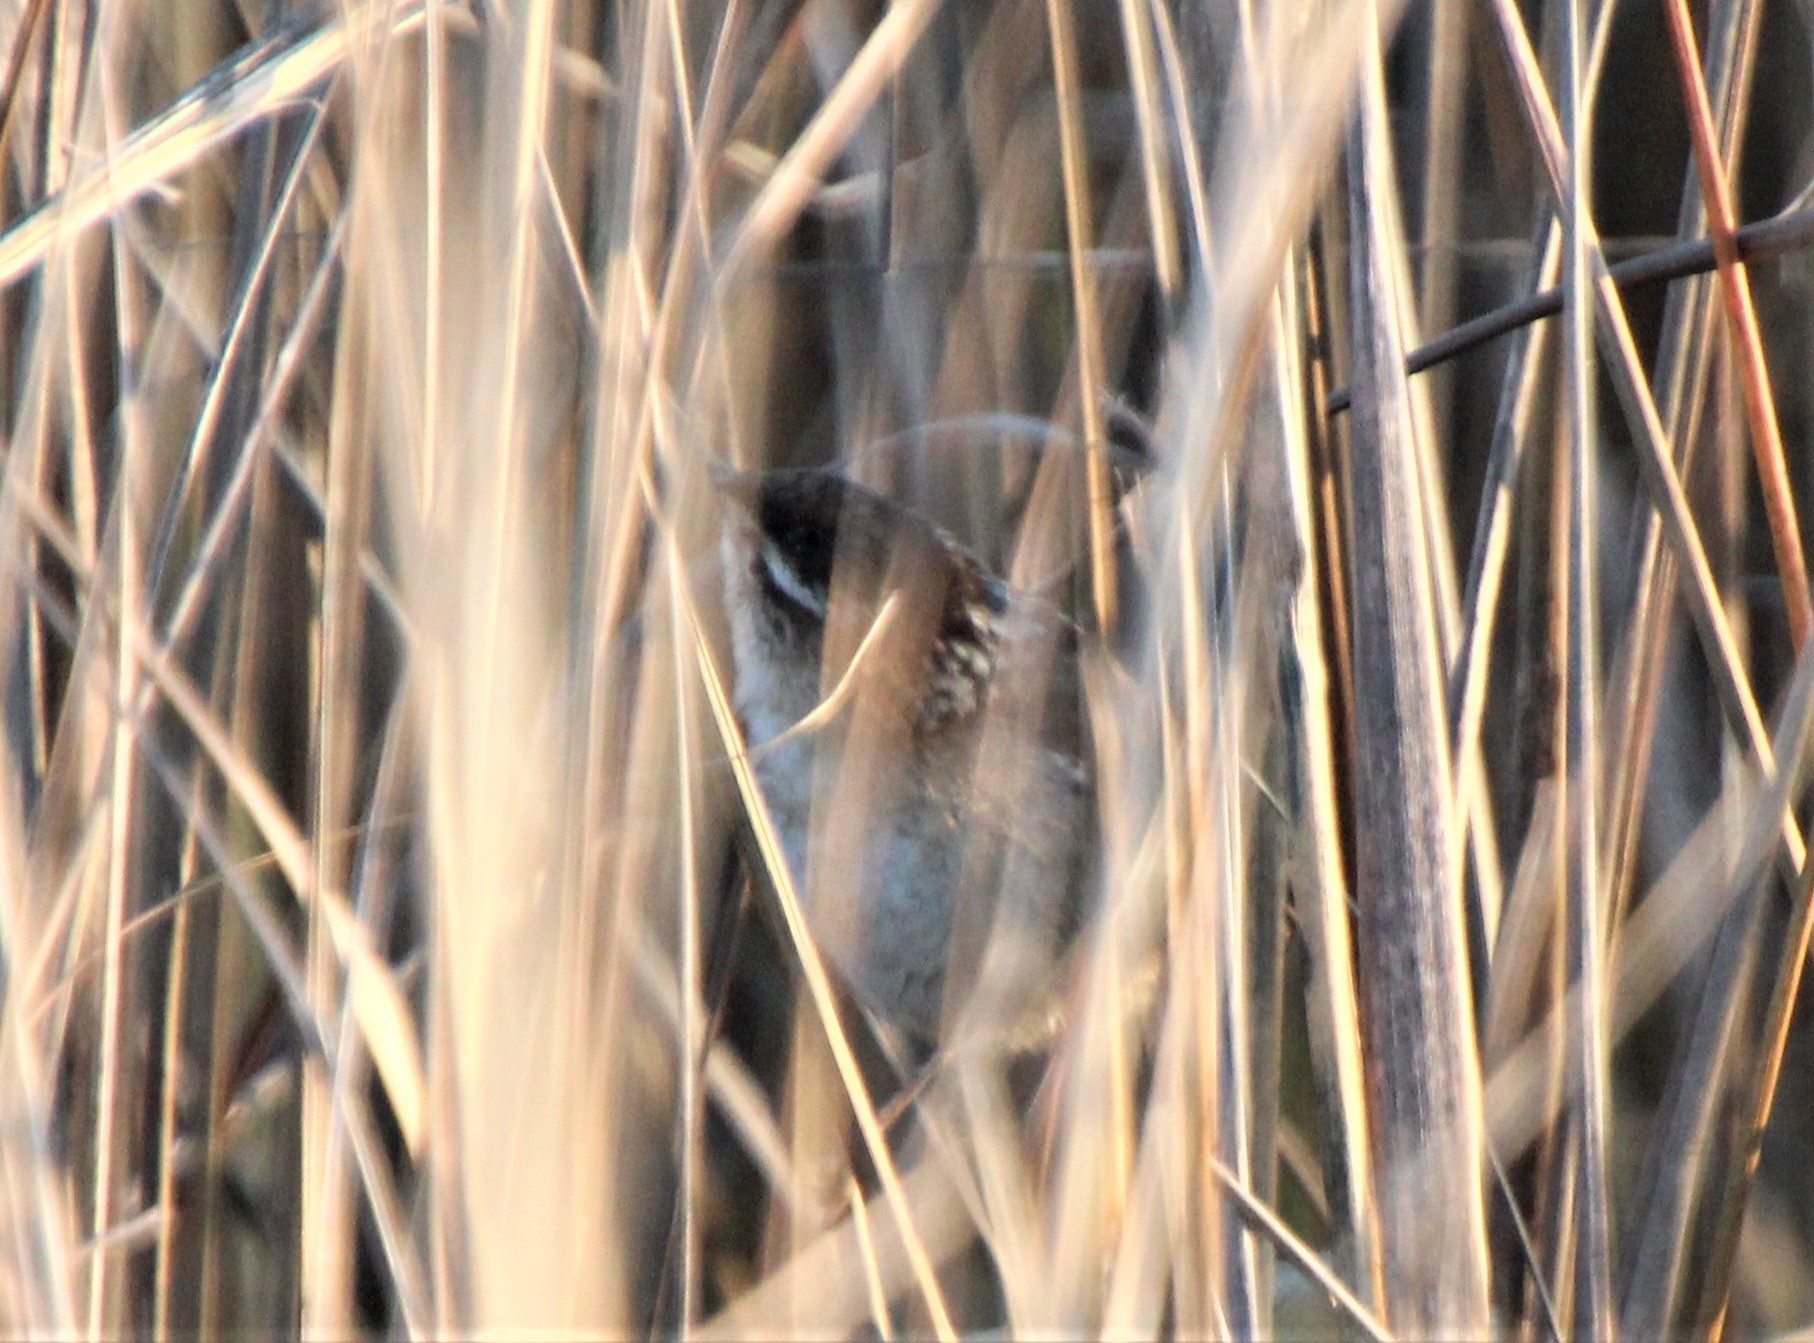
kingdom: Animalia
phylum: Chordata
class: Aves
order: Passeriformes
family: Troglodytidae
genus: Cistothorus
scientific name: Cistothorus palustris
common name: Marsh wren
